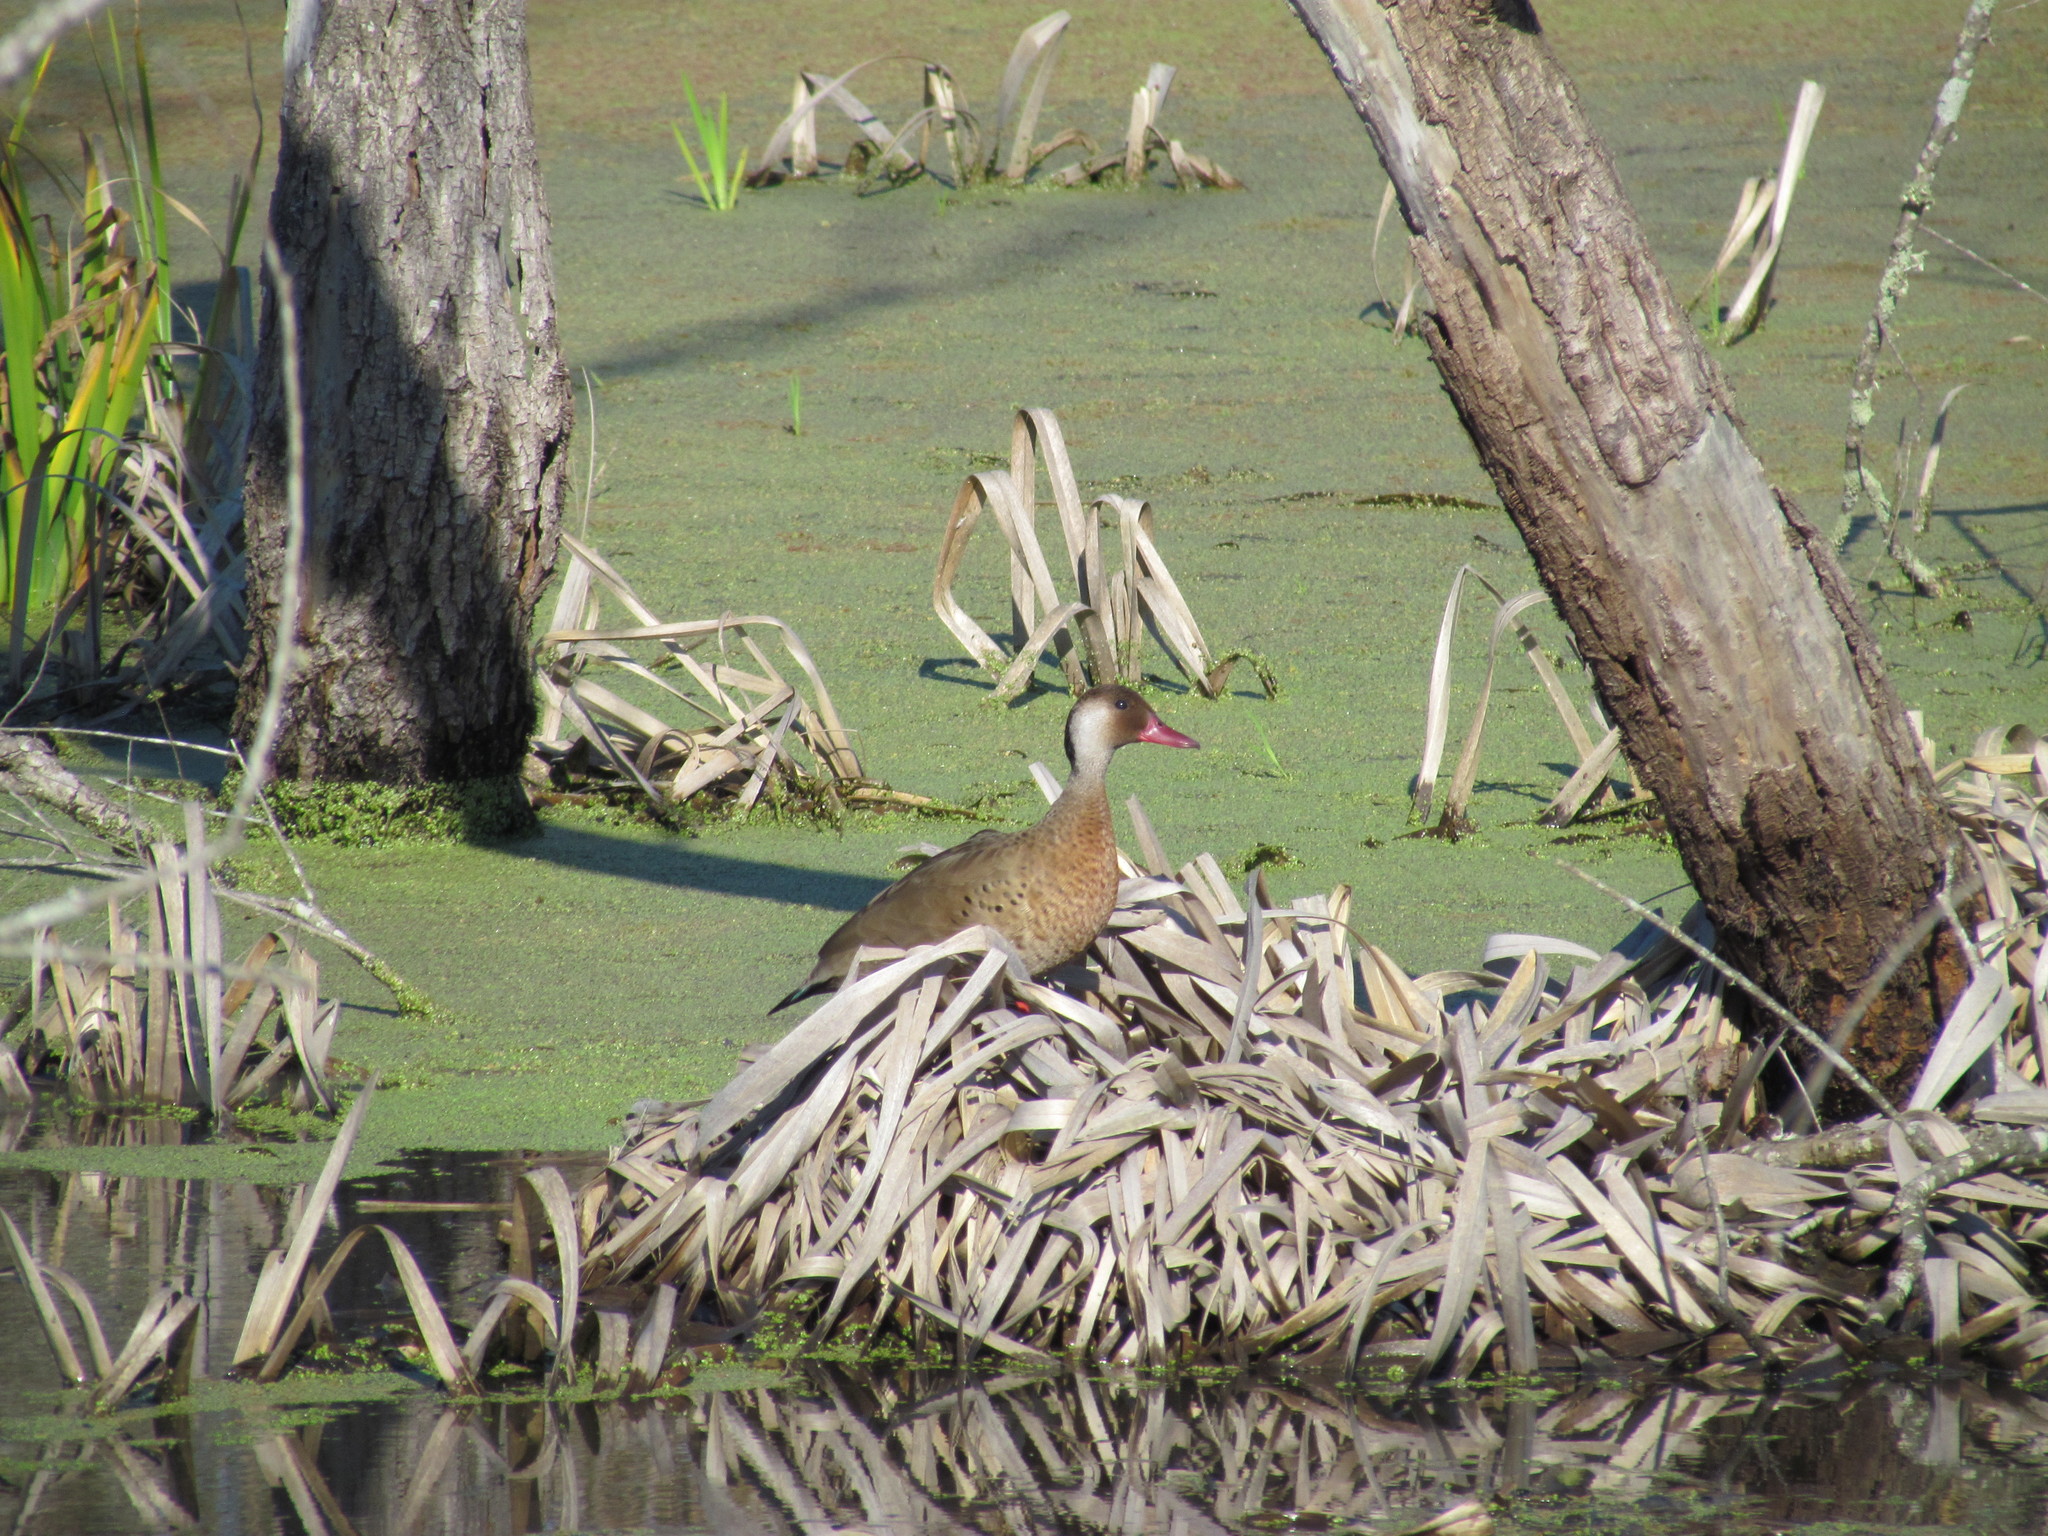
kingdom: Animalia
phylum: Chordata
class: Aves
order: Anseriformes
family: Anatidae
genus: Amazonetta
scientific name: Amazonetta brasiliensis
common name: Brazilian teal
